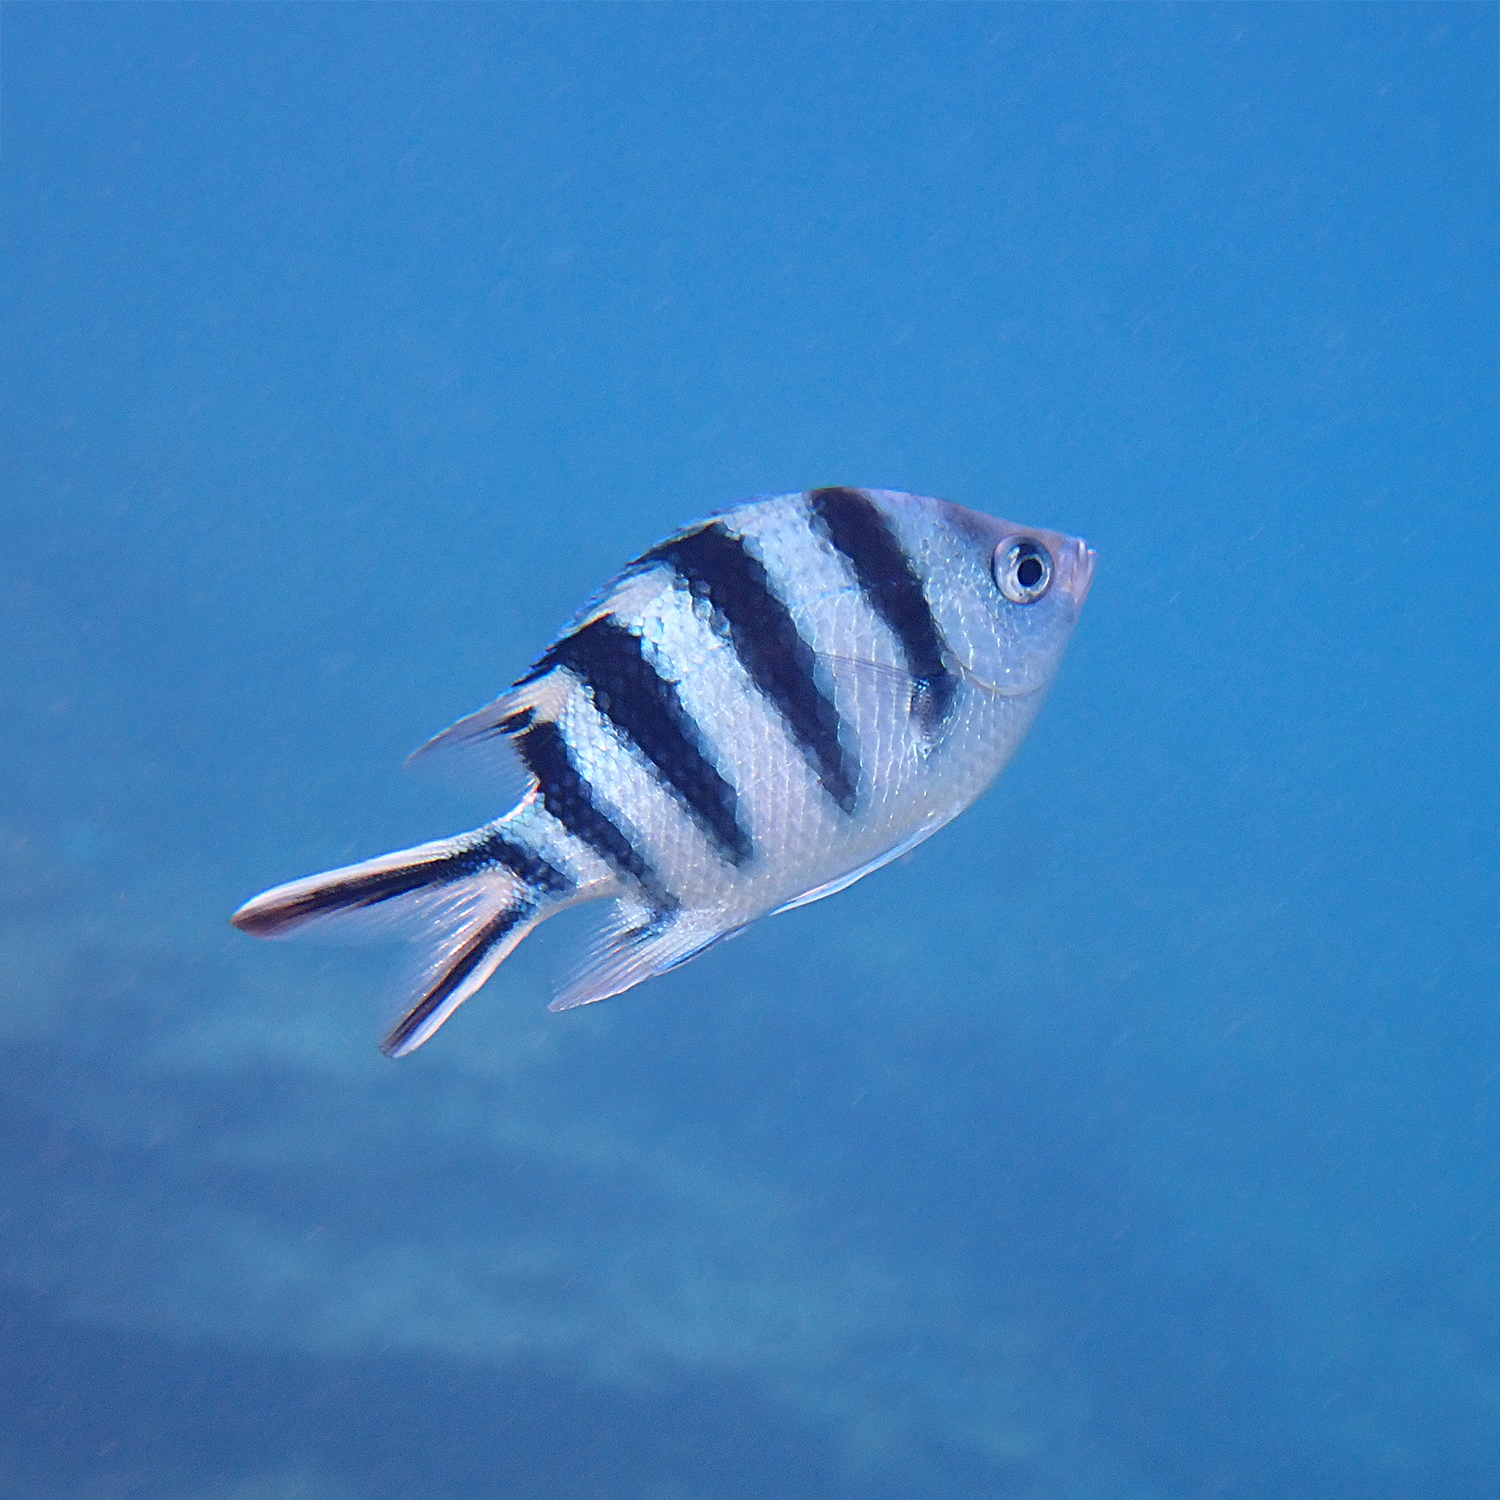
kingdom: Animalia
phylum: Chordata
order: Perciformes
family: Pomacentridae
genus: Abudefduf
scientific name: Abudefduf sexfasciatus
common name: Scissortail sergeant
